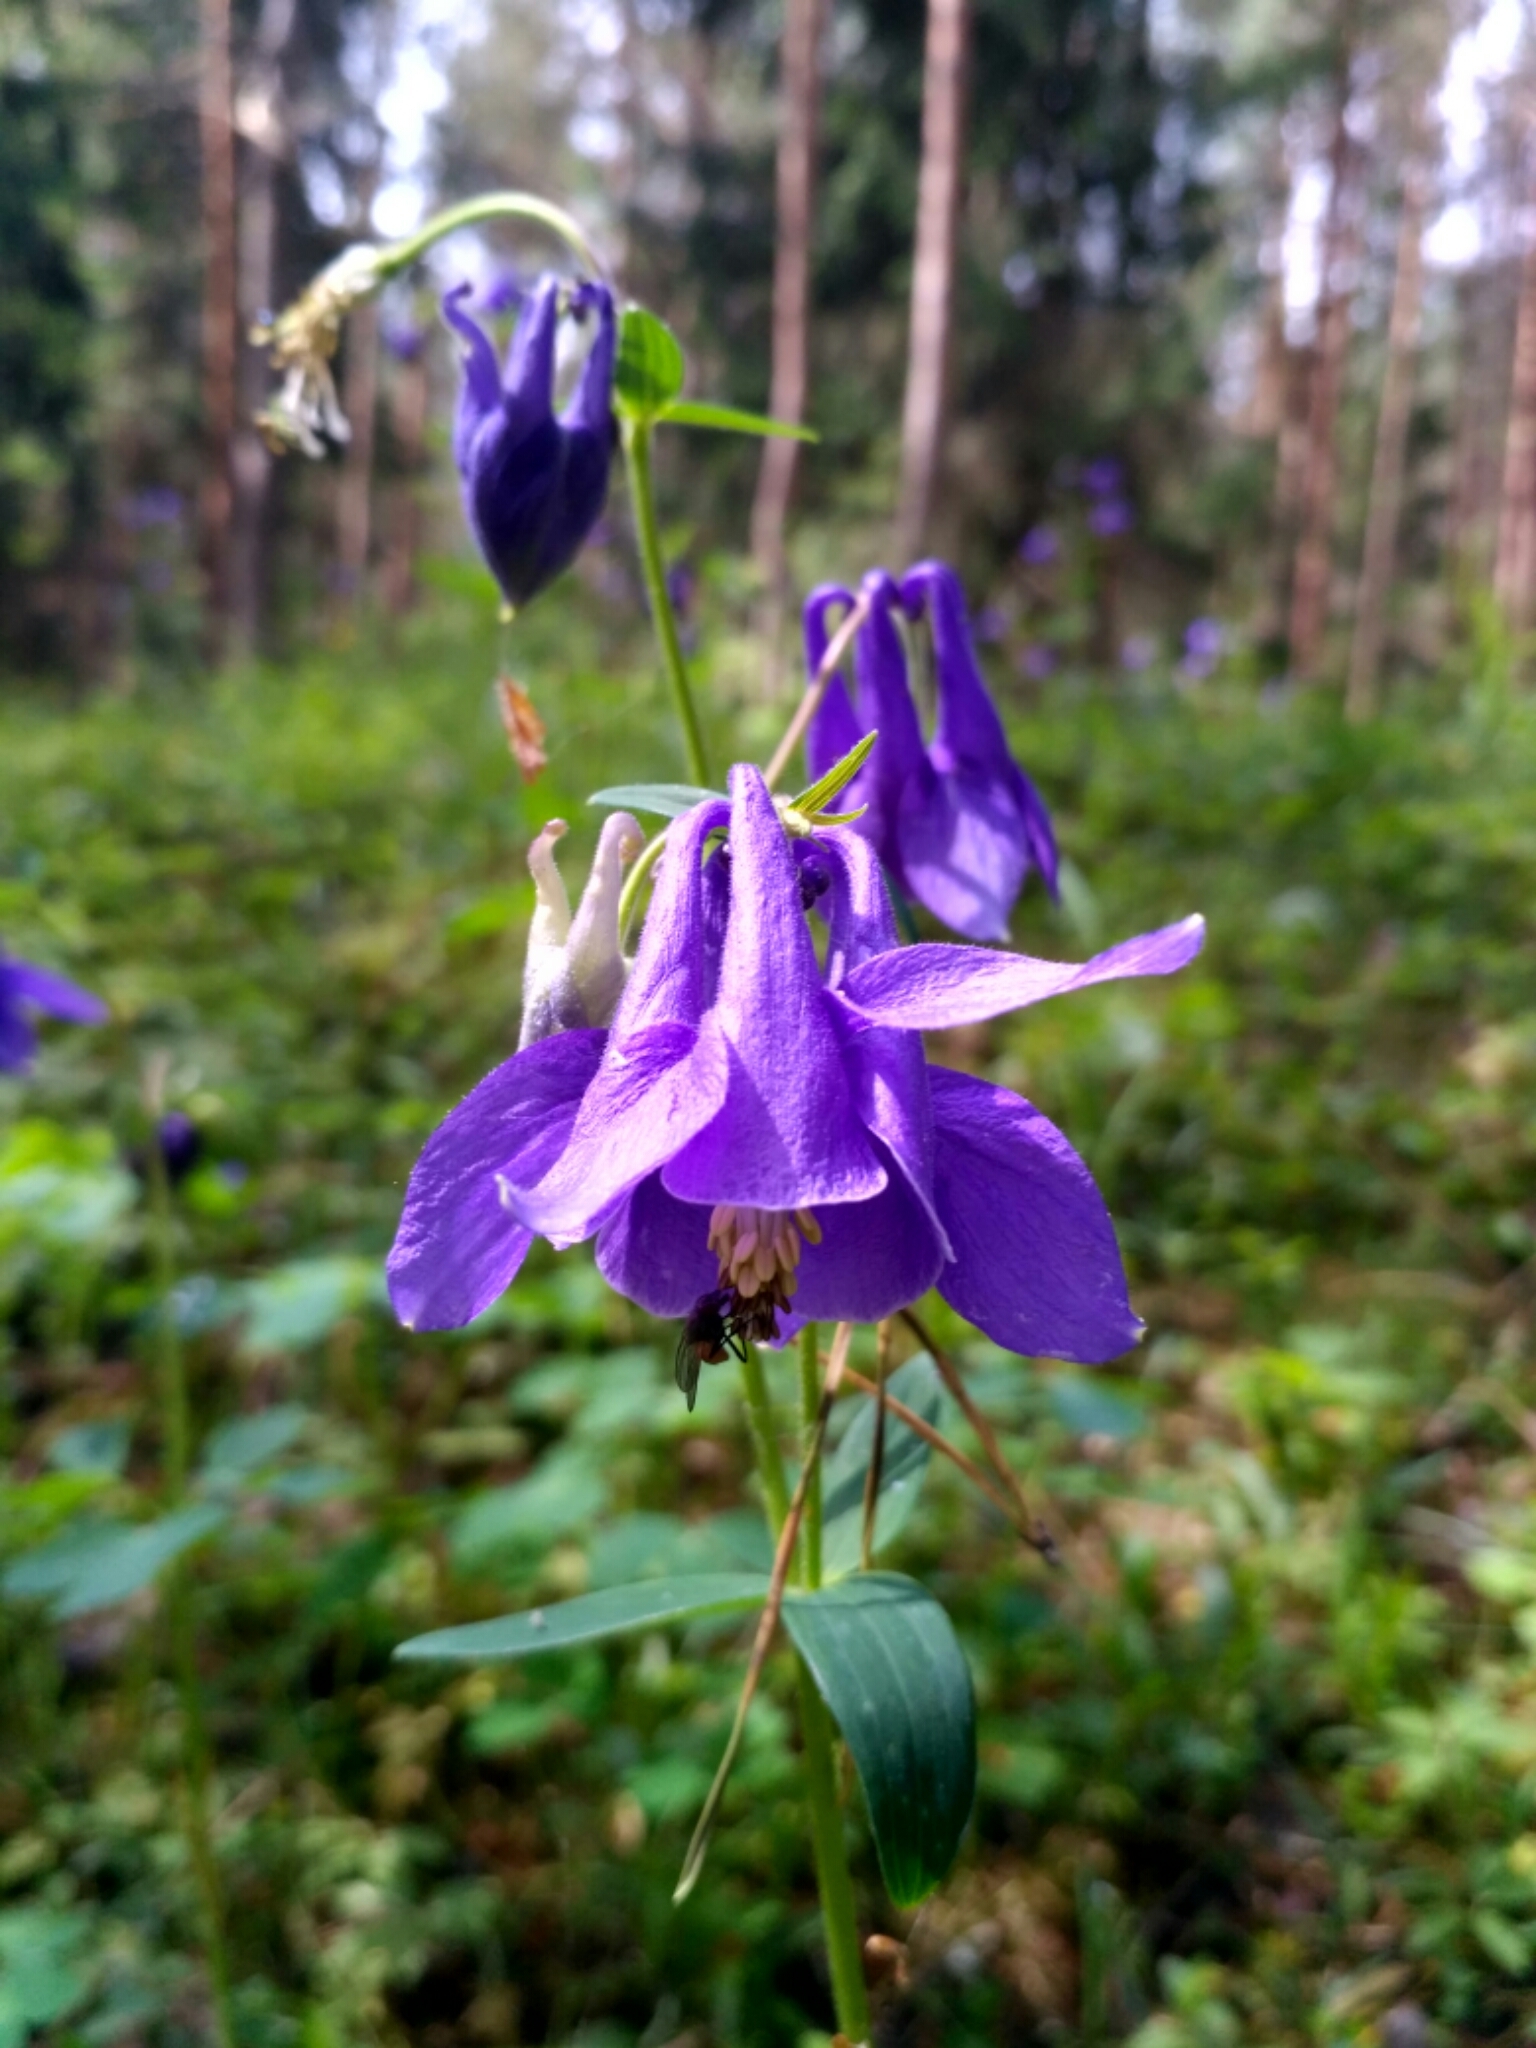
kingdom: Plantae
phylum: Tracheophyta
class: Magnoliopsida
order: Ranunculales
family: Ranunculaceae
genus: Aquilegia
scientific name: Aquilegia vulgaris
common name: Columbine
